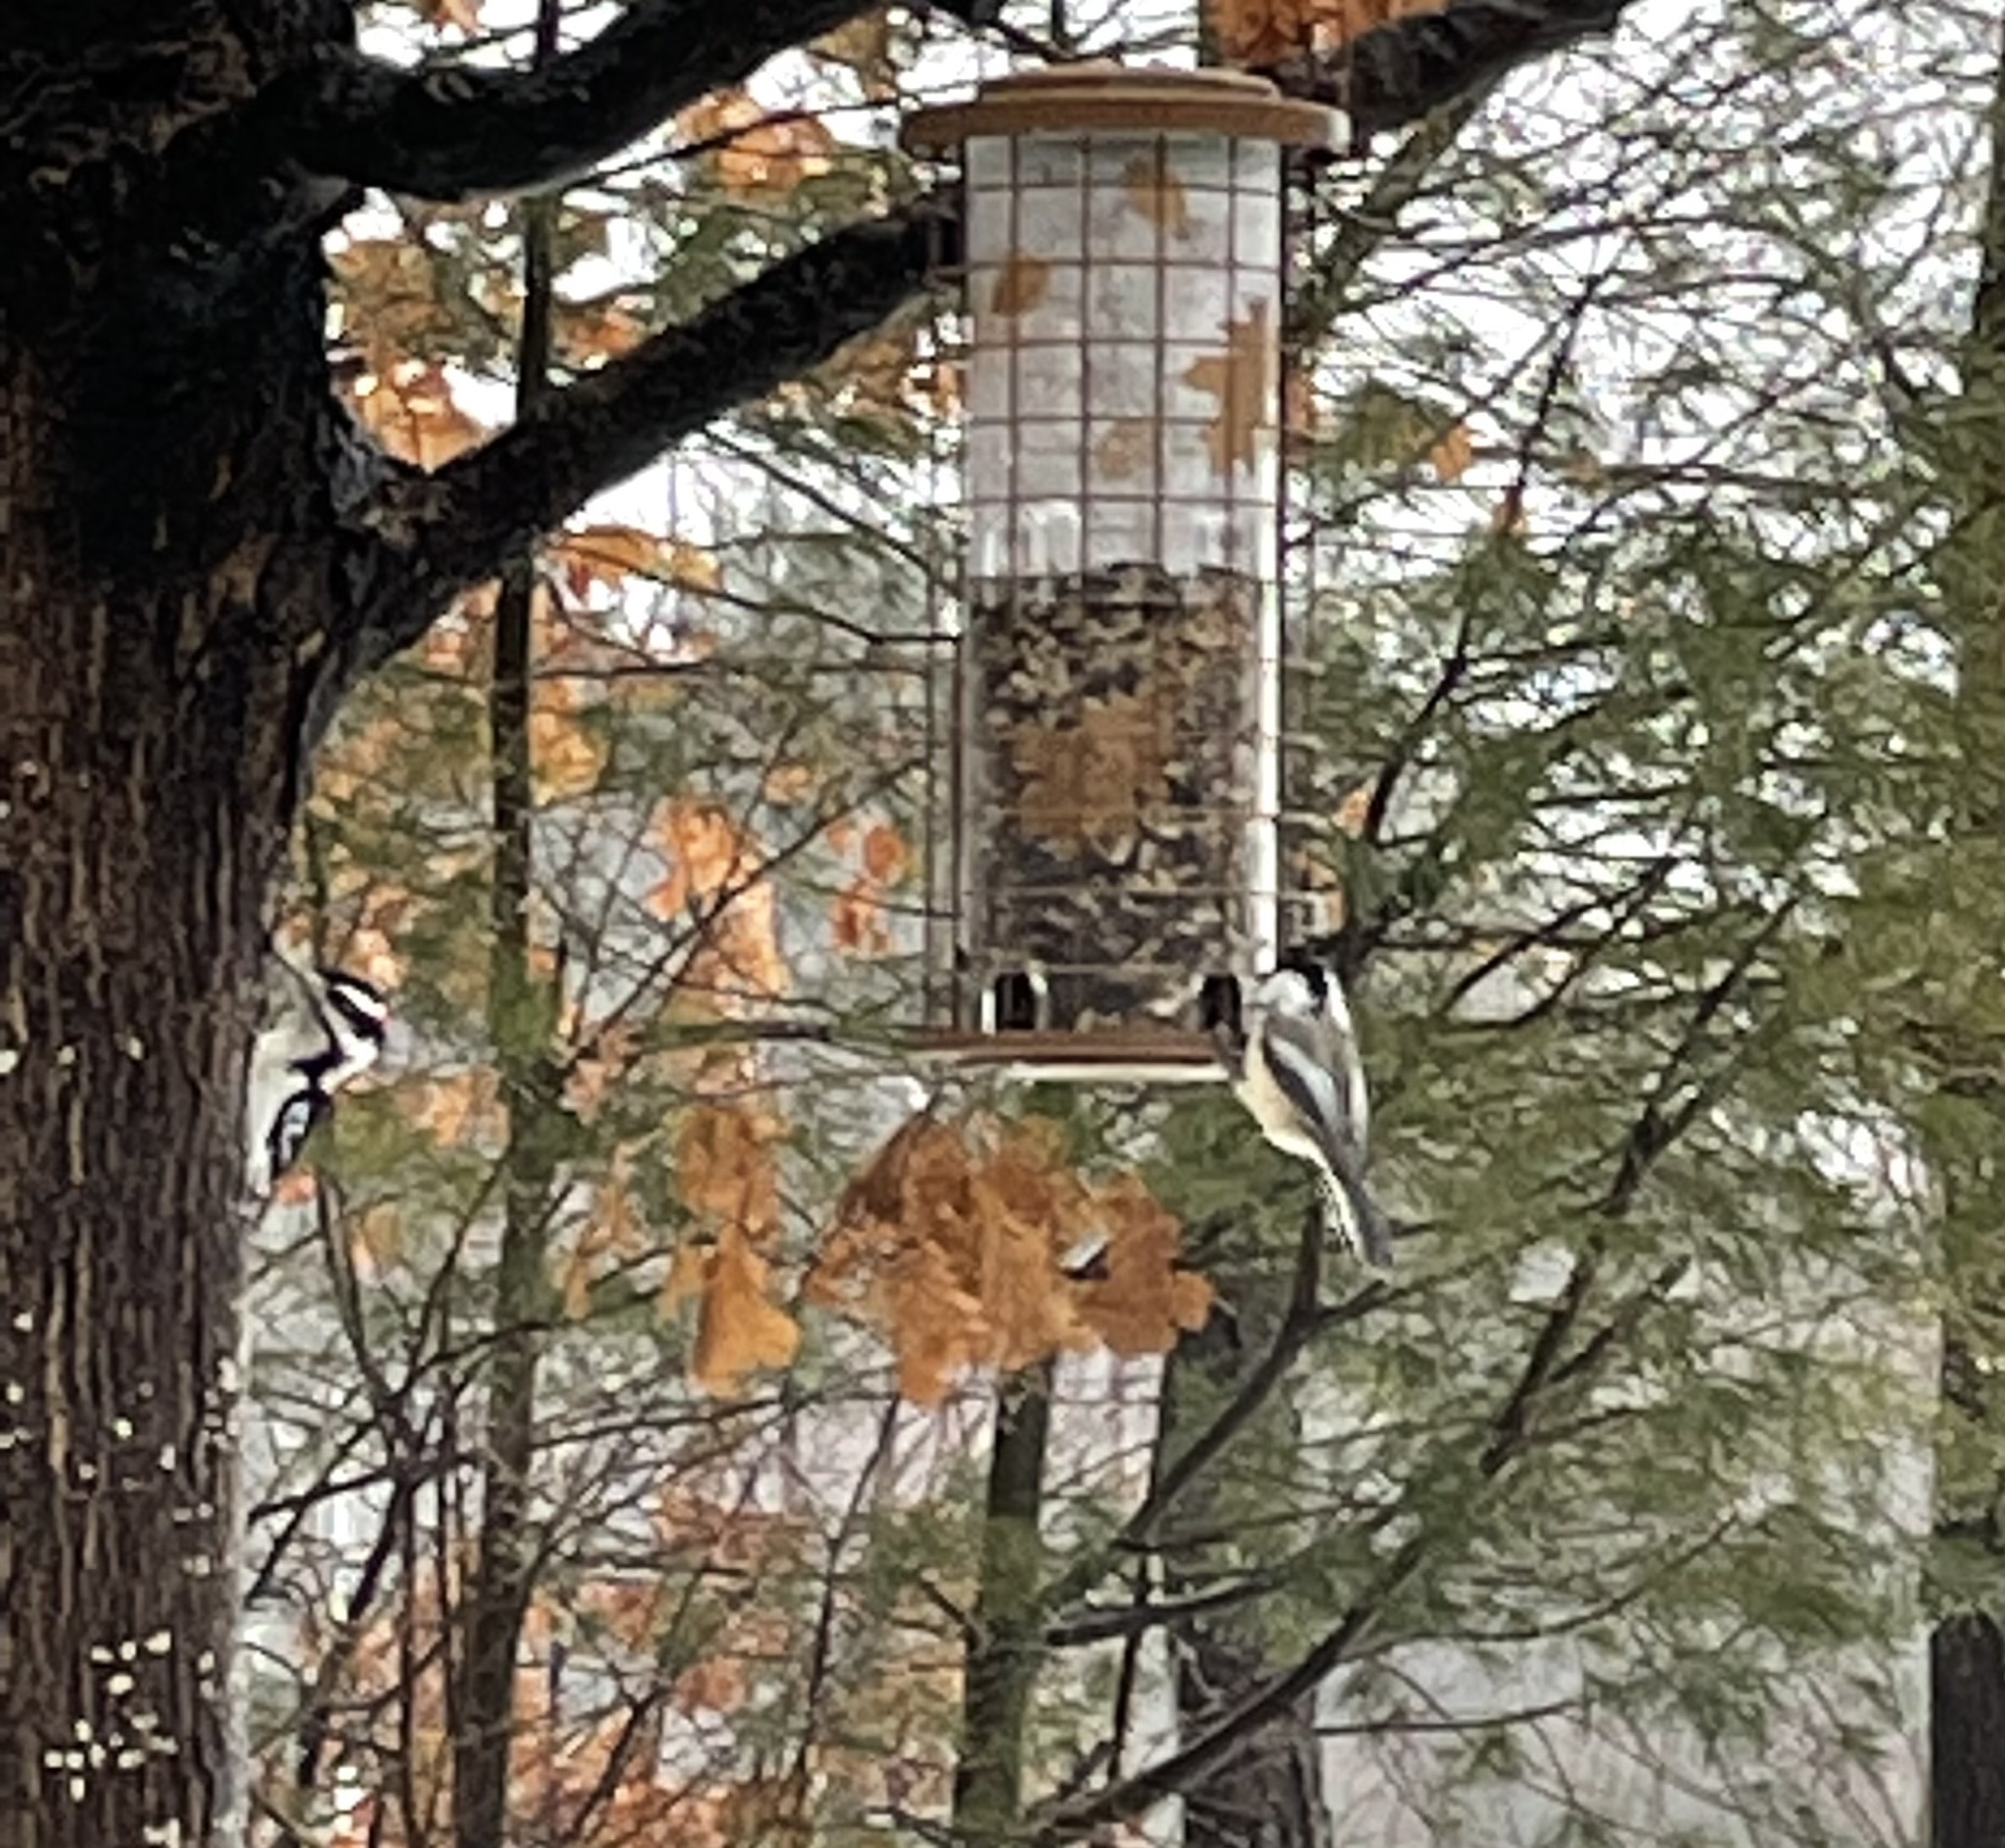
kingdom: Animalia
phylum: Chordata
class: Aves
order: Passeriformes
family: Paridae
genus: Poecile
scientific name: Poecile atricapillus
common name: Black-capped chickadee
